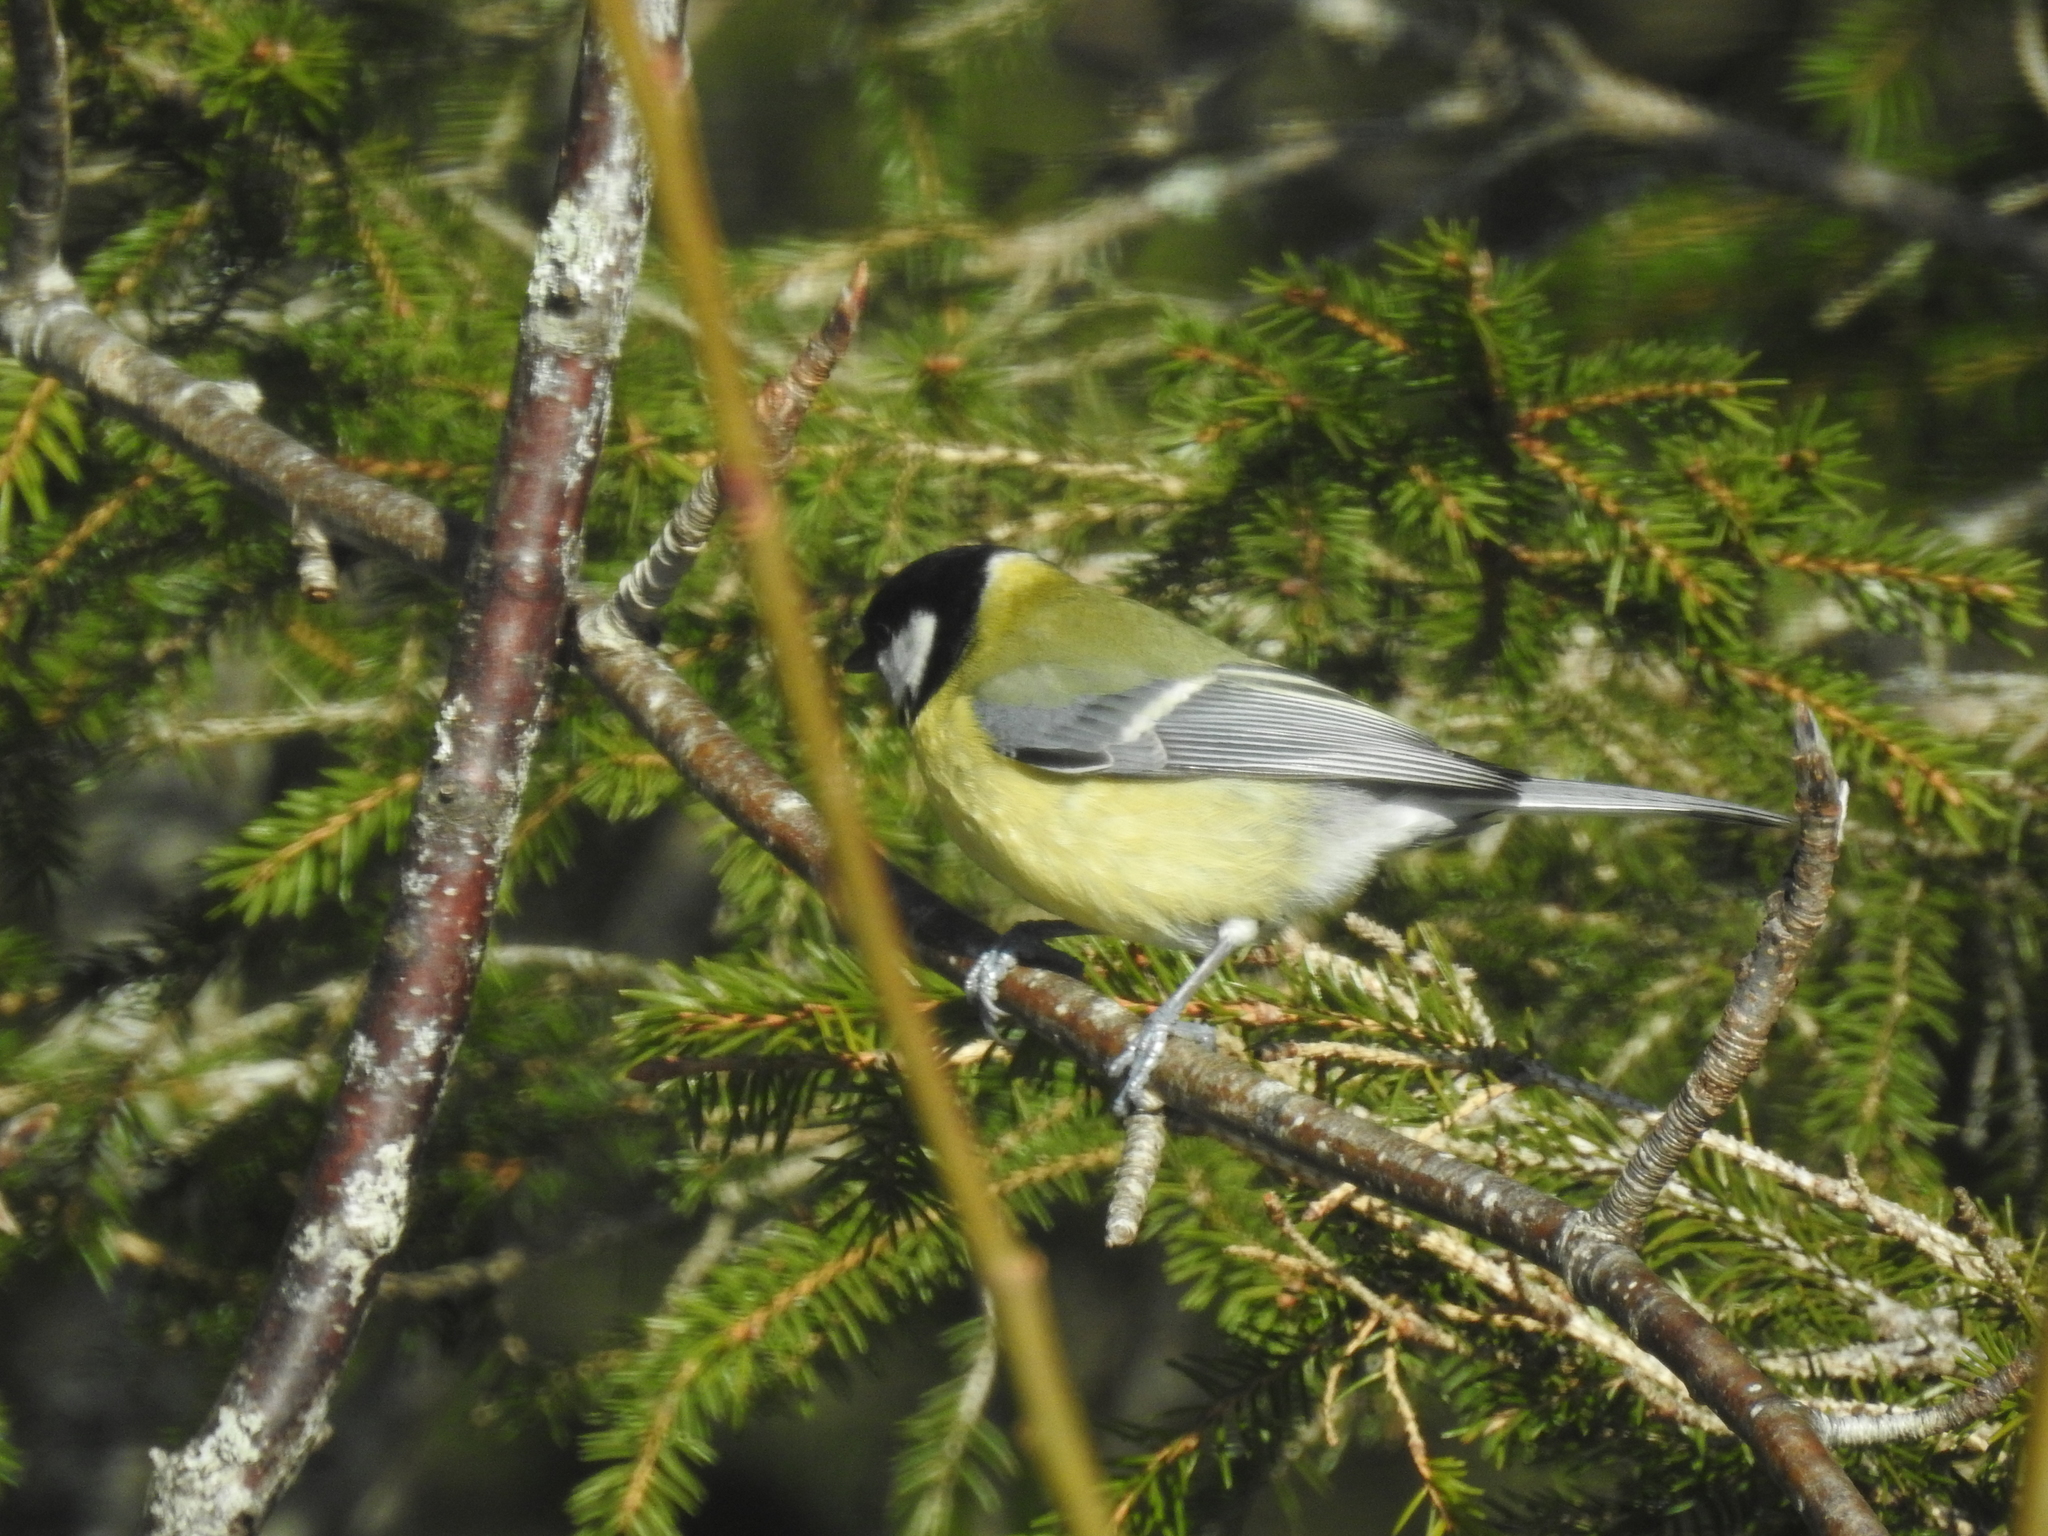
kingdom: Animalia
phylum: Chordata
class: Aves
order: Passeriformes
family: Paridae
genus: Parus
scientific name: Parus major
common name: Great tit
